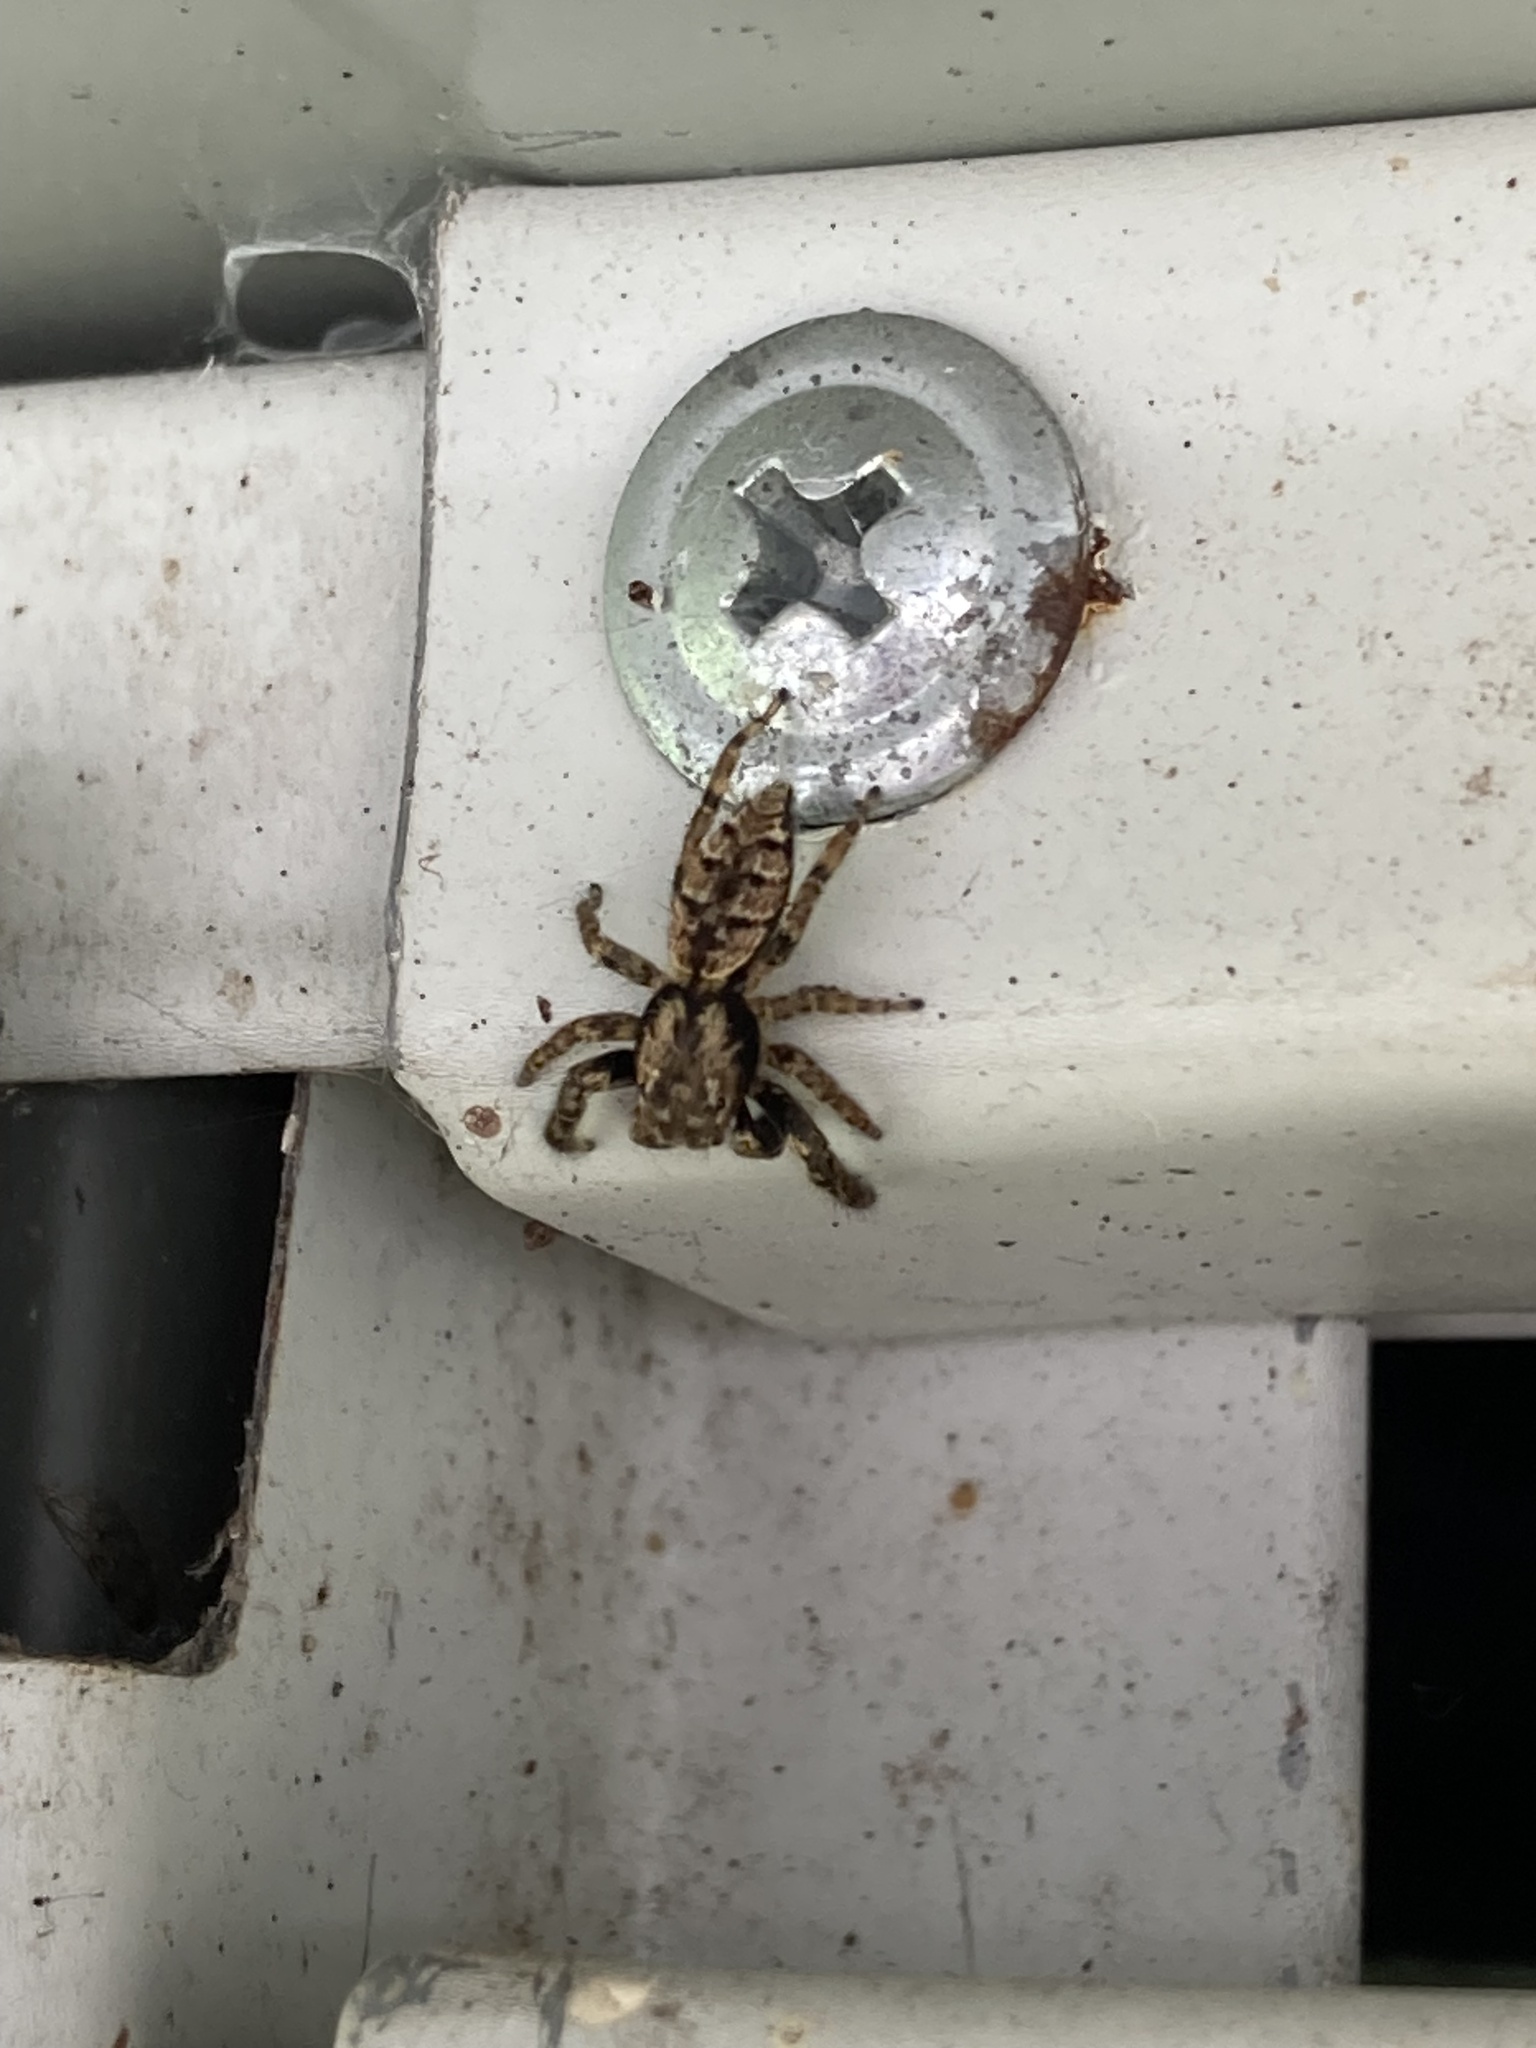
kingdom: Animalia
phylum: Arthropoda
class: Arachnida
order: Araneae
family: Salticidae
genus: Marpissa
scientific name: Marpissa muscosa
